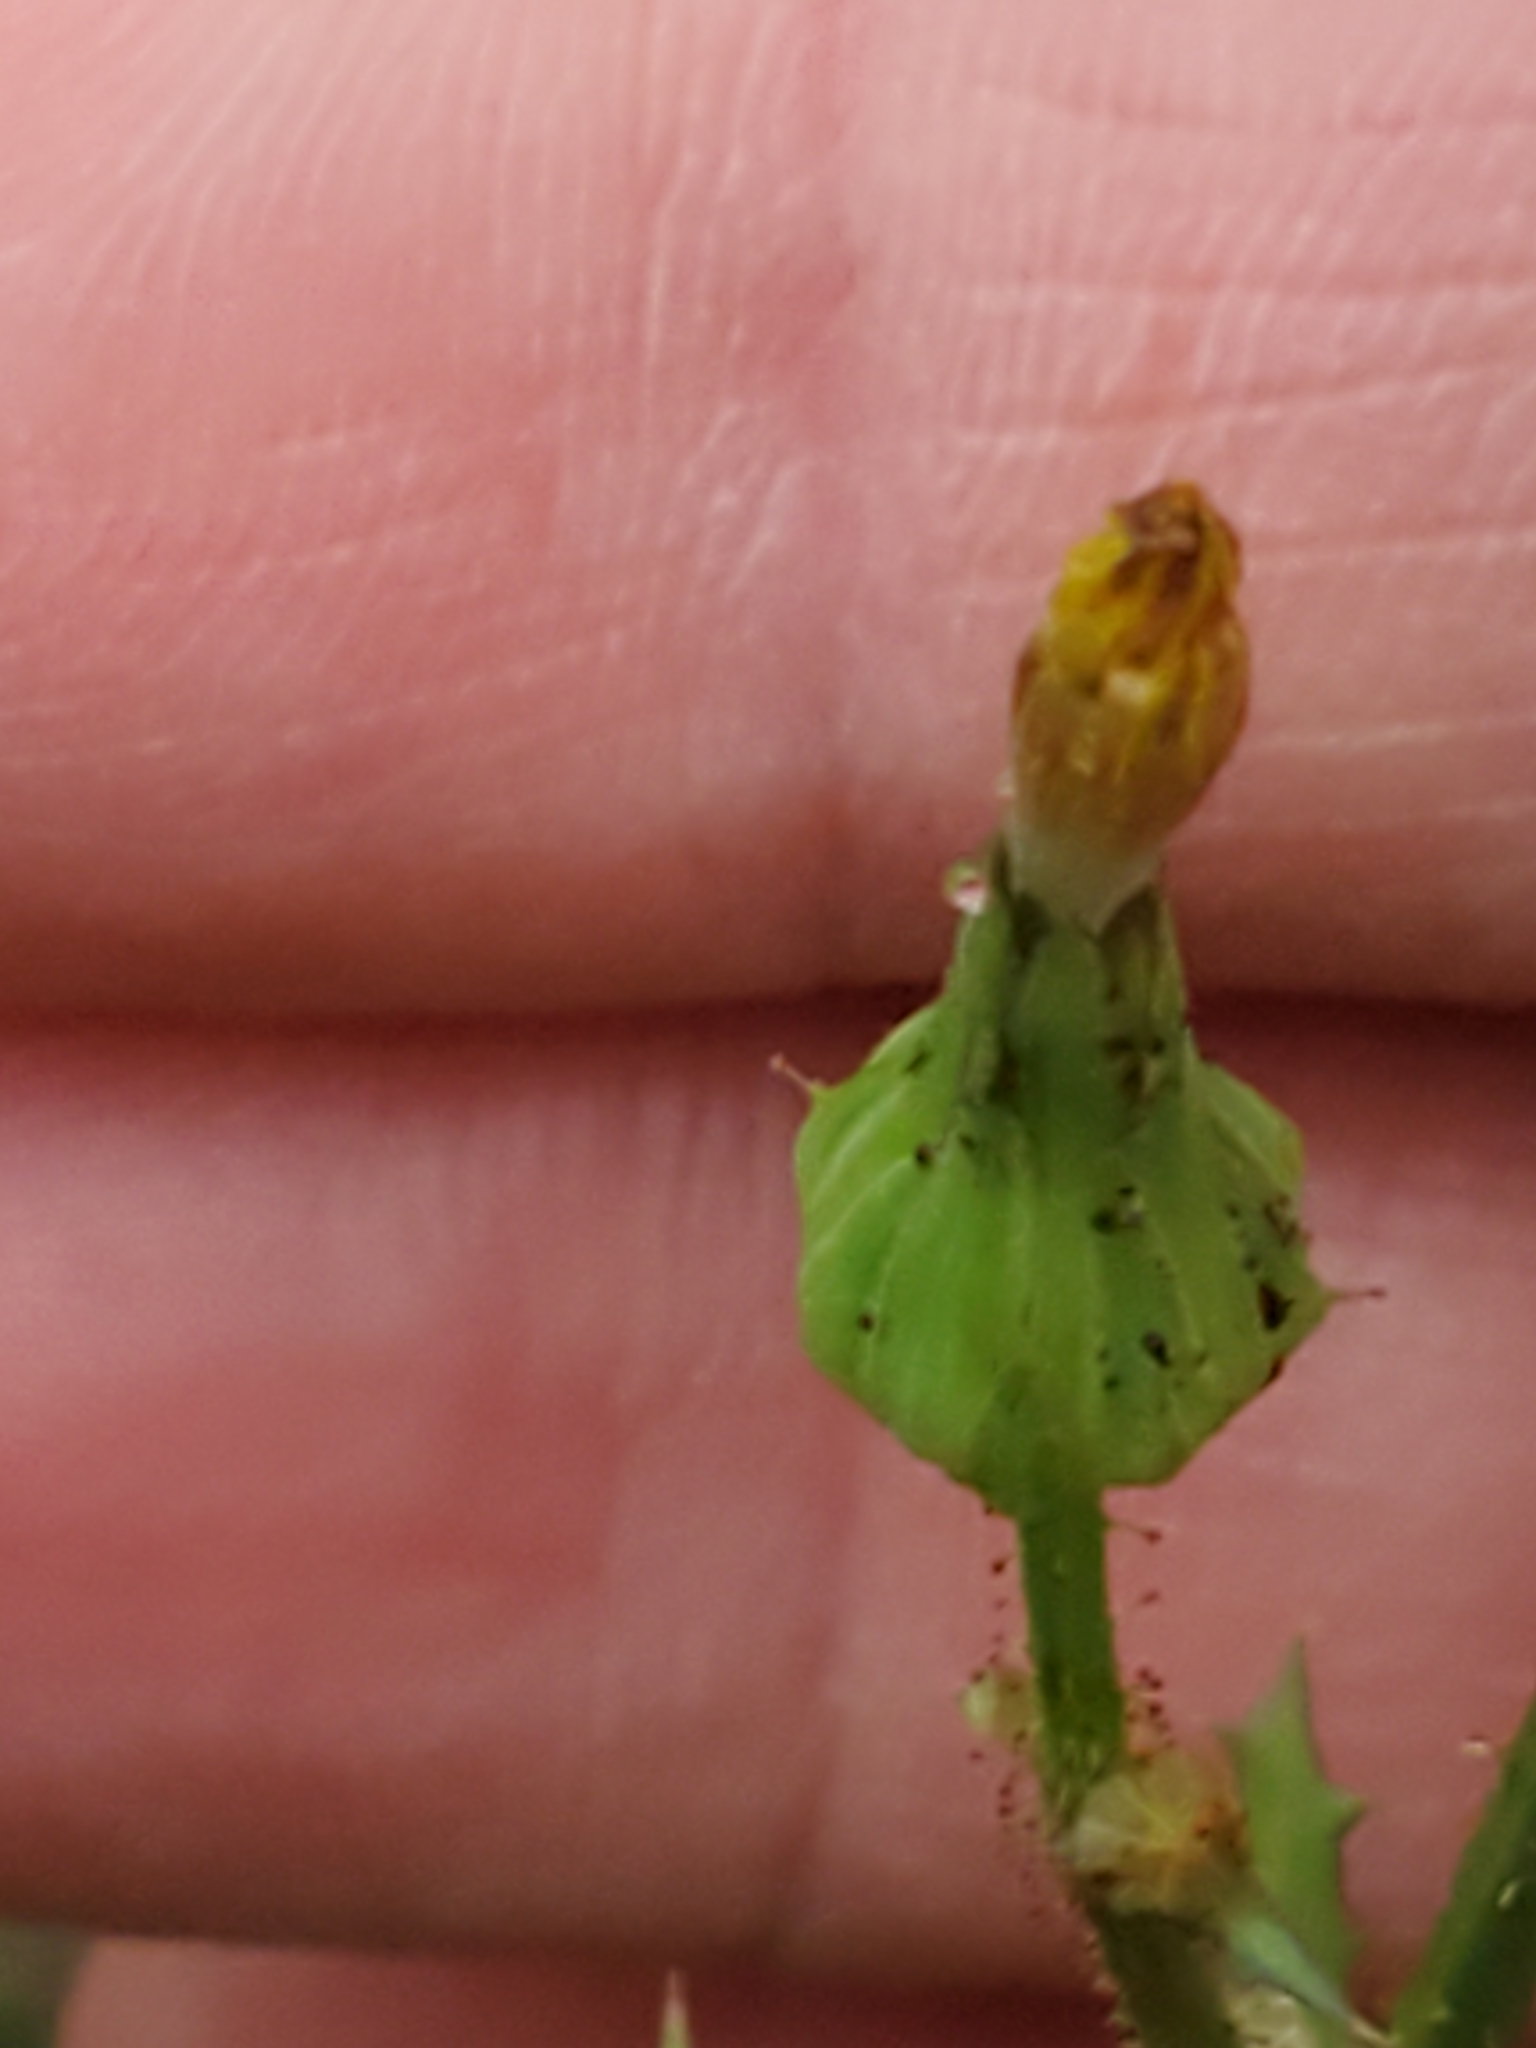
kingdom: Plantae
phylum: Tracheophyta
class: Magnoliopsida
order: Asterales
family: Asteraceae
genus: Sonchus
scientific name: Sonchus asper
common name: Prickly sow-thistle
